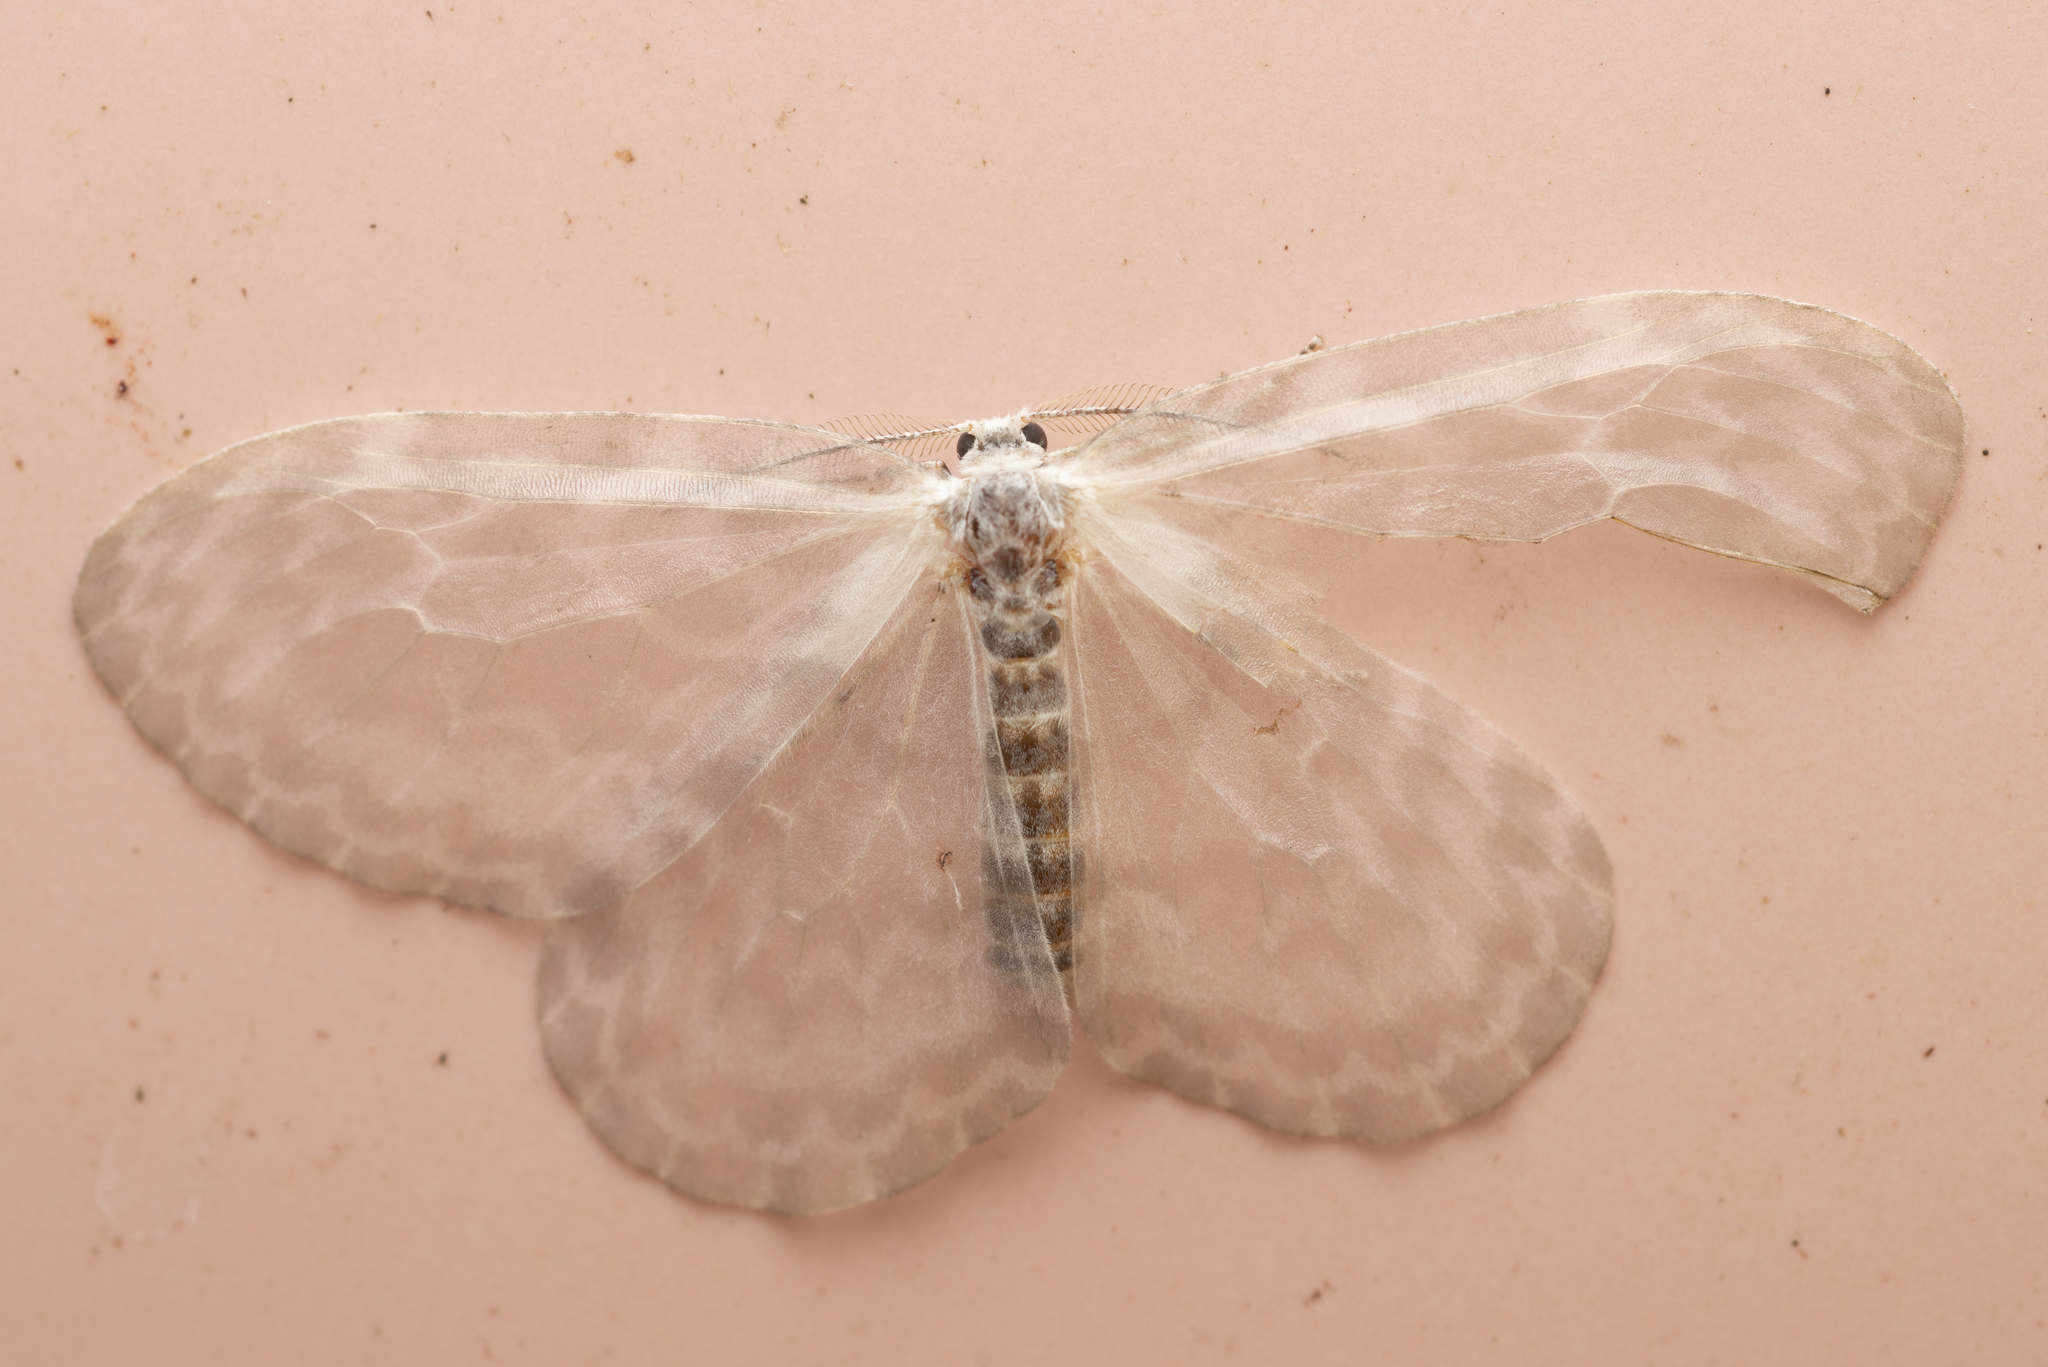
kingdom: Animalia
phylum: Arthropoda
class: Insecta
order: Lepidoptera
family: Drepanidae
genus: Deroca
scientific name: Deroca hyalina
